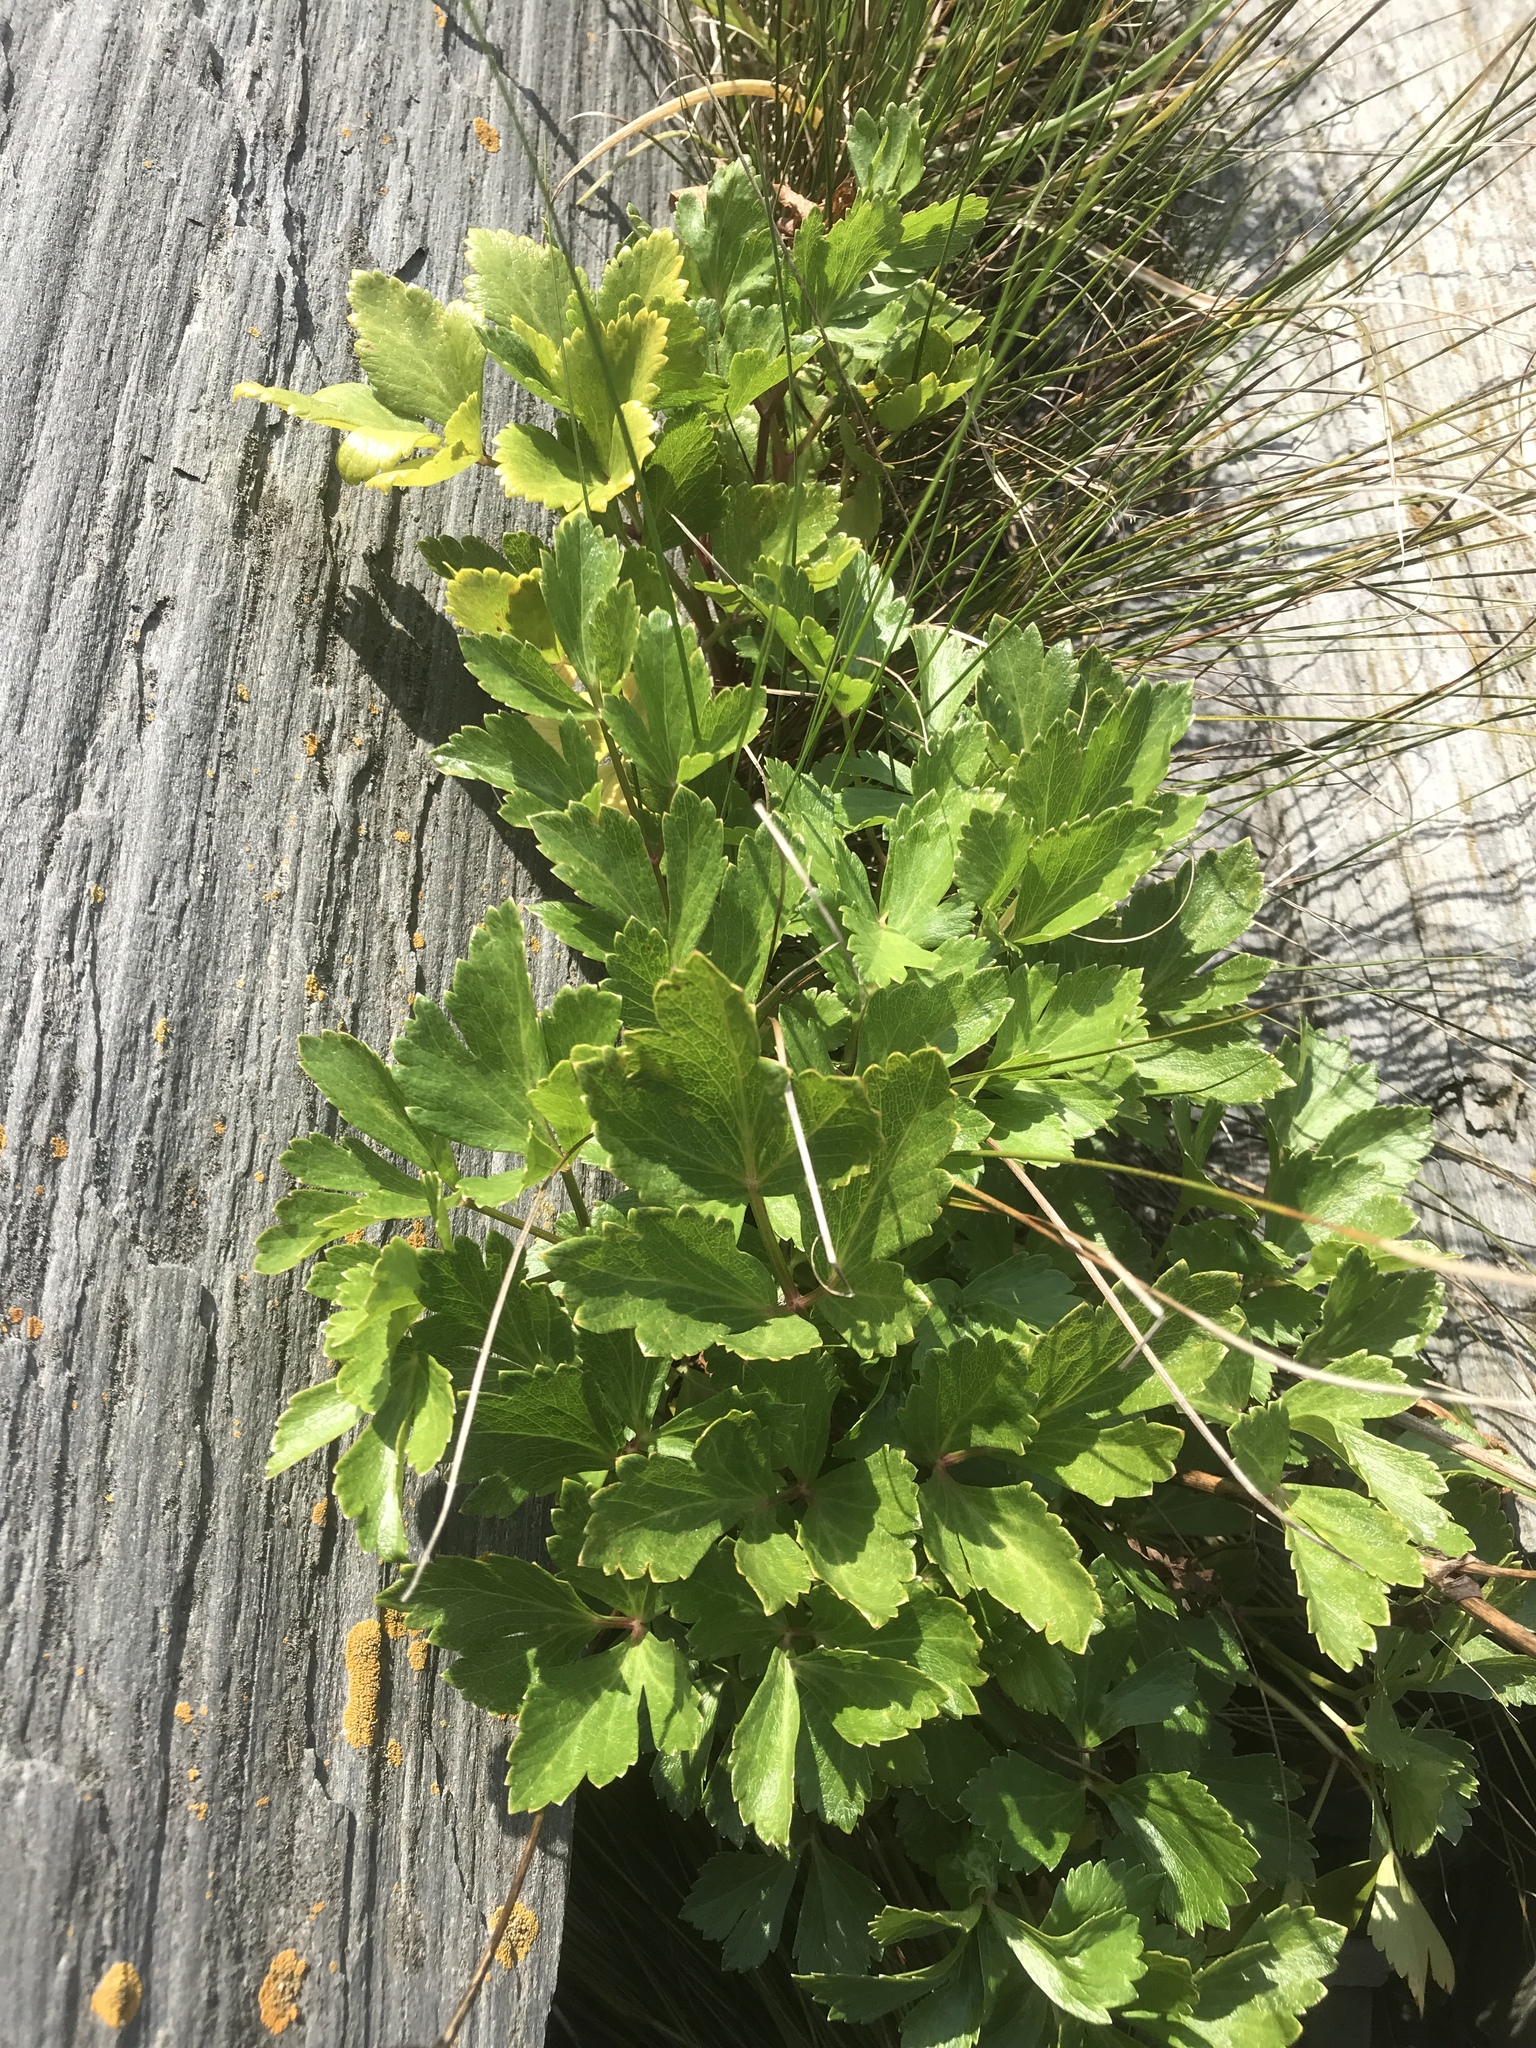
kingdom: Plantae
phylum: Tracheophyta
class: Magnoliopsida
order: Apiales
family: Apiaceae
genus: Ligusticum
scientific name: Ligusticum scothicum
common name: Beach lovage
